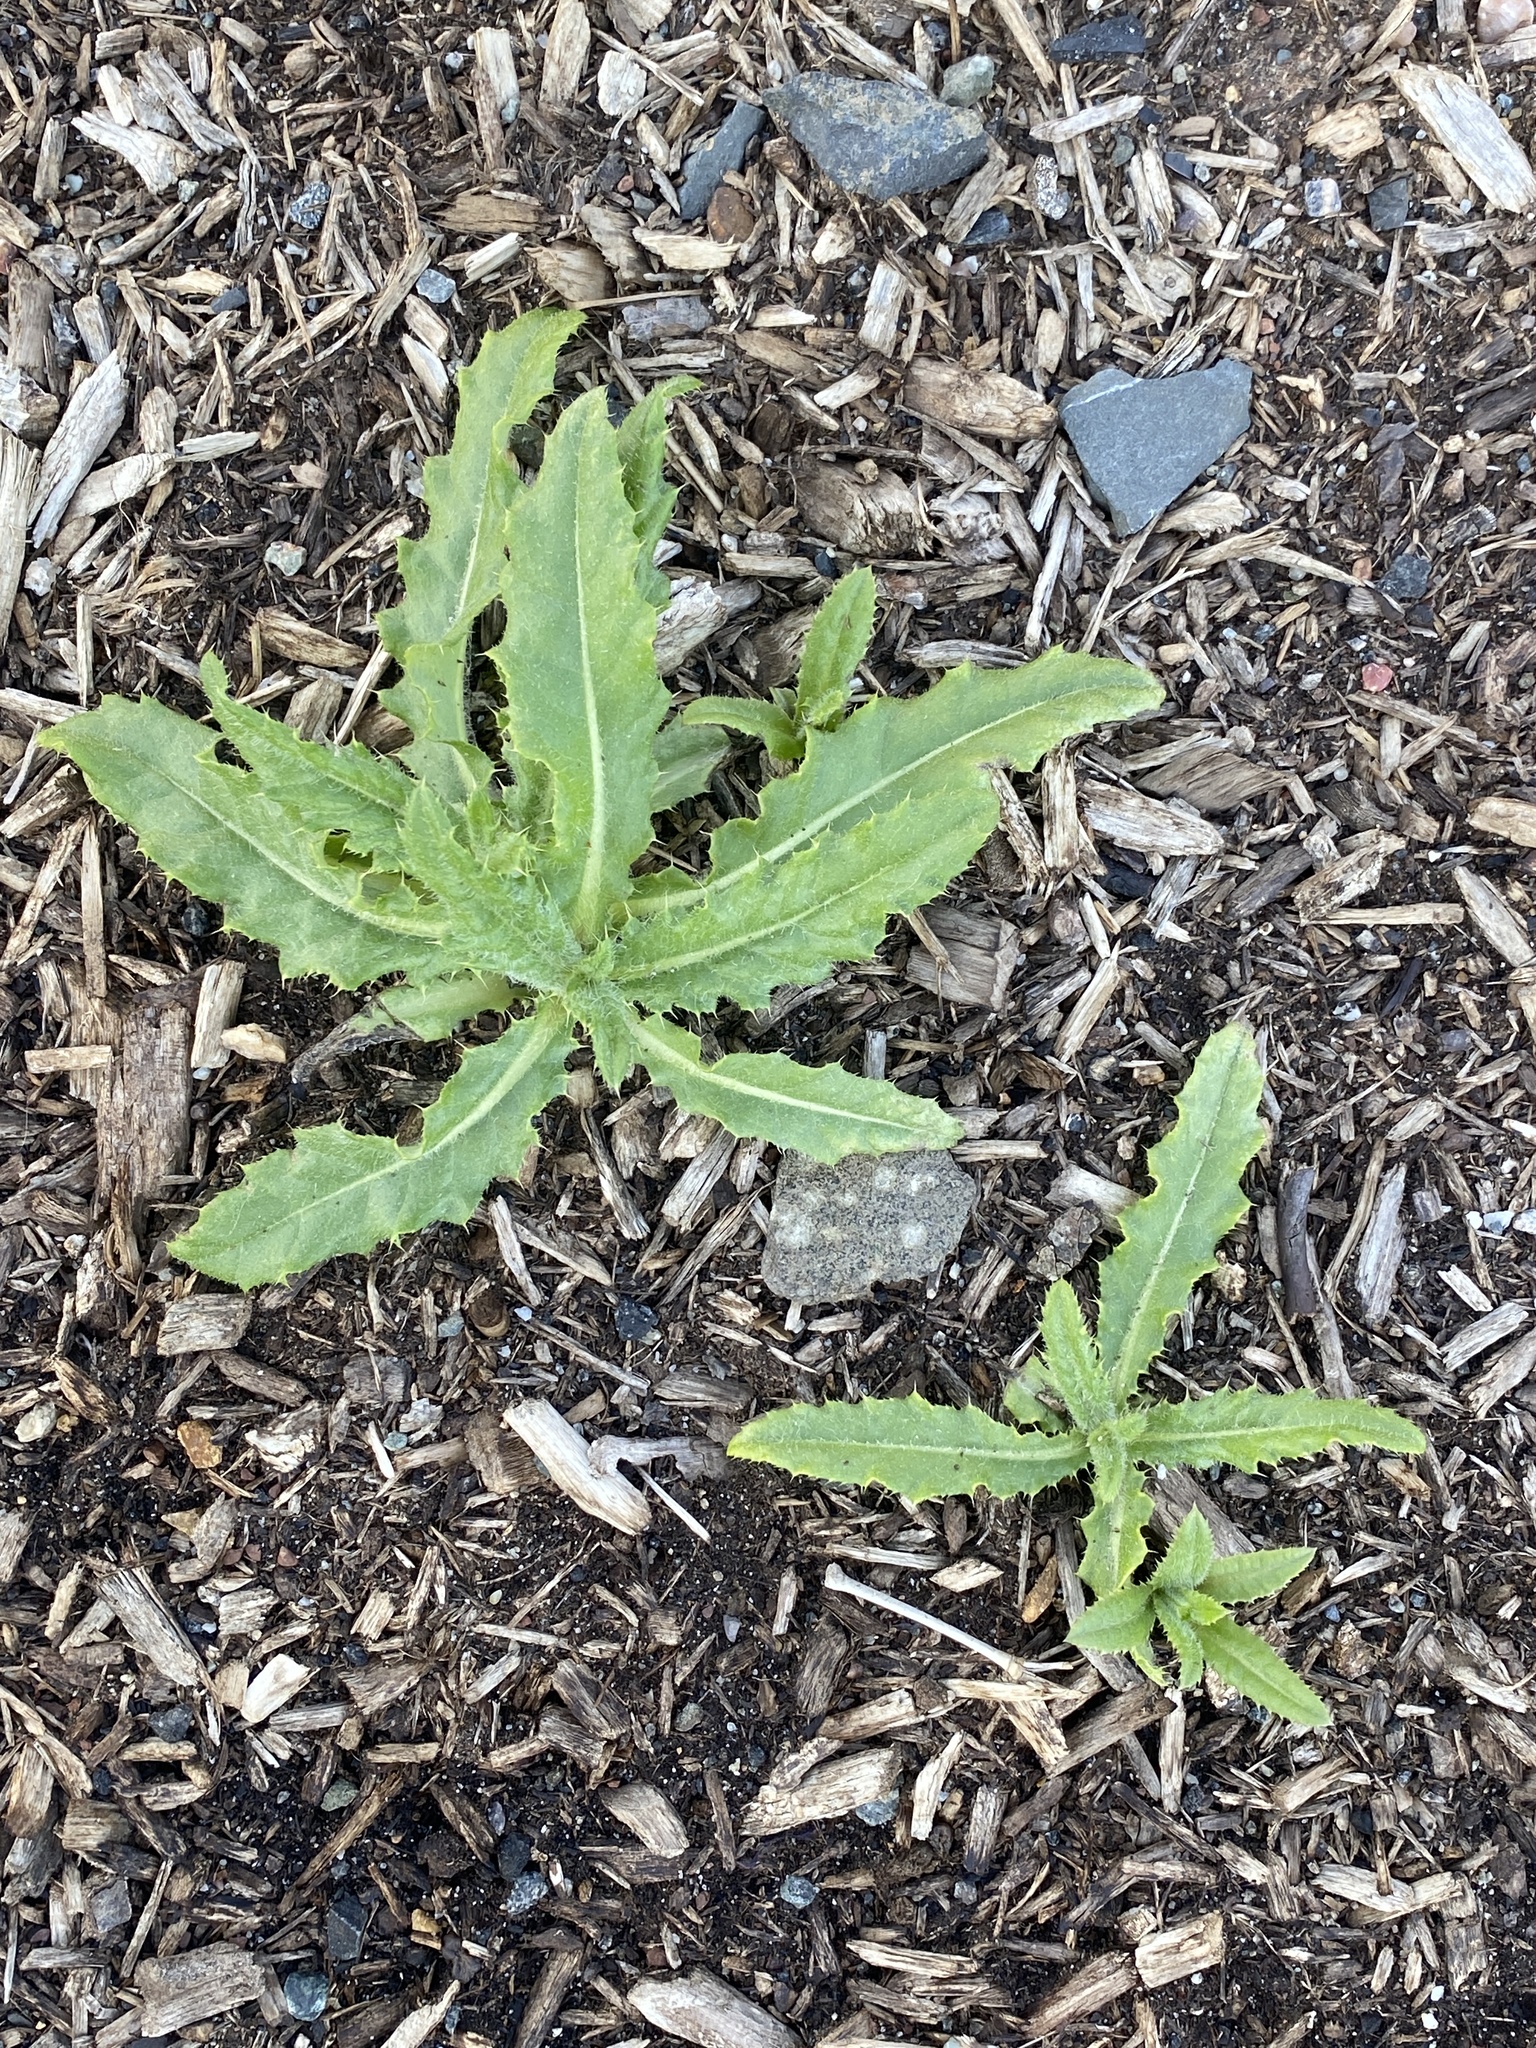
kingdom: Plantae
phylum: Tracheophyta
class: Magnoliopsida
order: Asterales
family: Asteraceae
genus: Cirsium
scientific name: Cirsium arvense
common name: Creeping thistle
